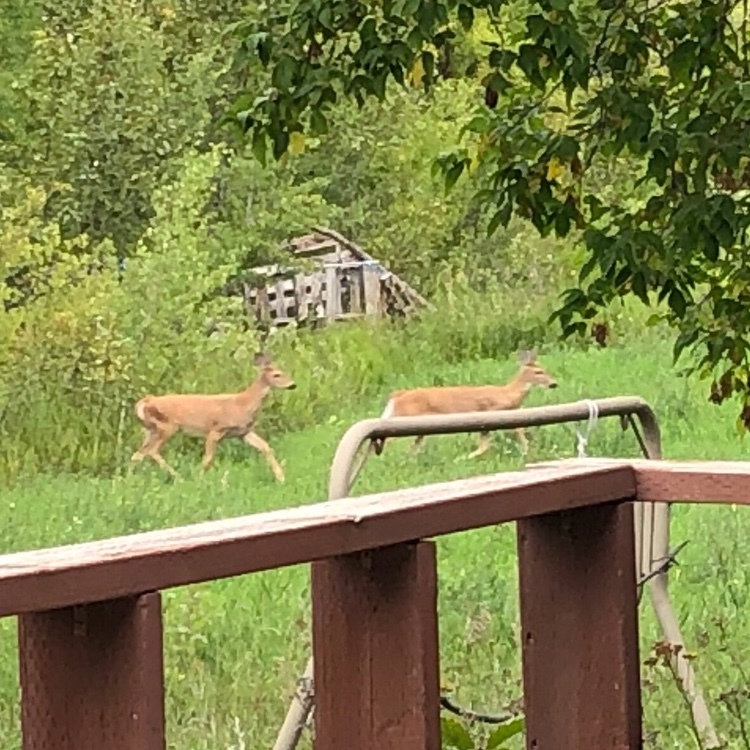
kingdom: Animalia
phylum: Chordata
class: Mammalia
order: Artiodactyla
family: Cervidae
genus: Odocoileus
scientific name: Odocoileus virginianus
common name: White-tailed deer
